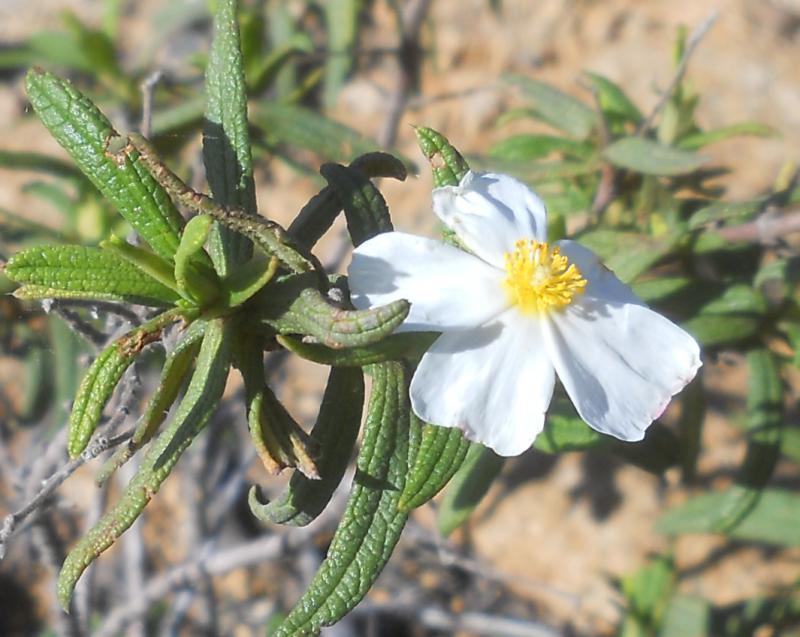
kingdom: Plantae
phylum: Tracheophyta
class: Magnoliopsida
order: Malvales
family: Cistaceae
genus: Cistus
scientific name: Cistus monspeliensis
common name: Montpelier cistus
